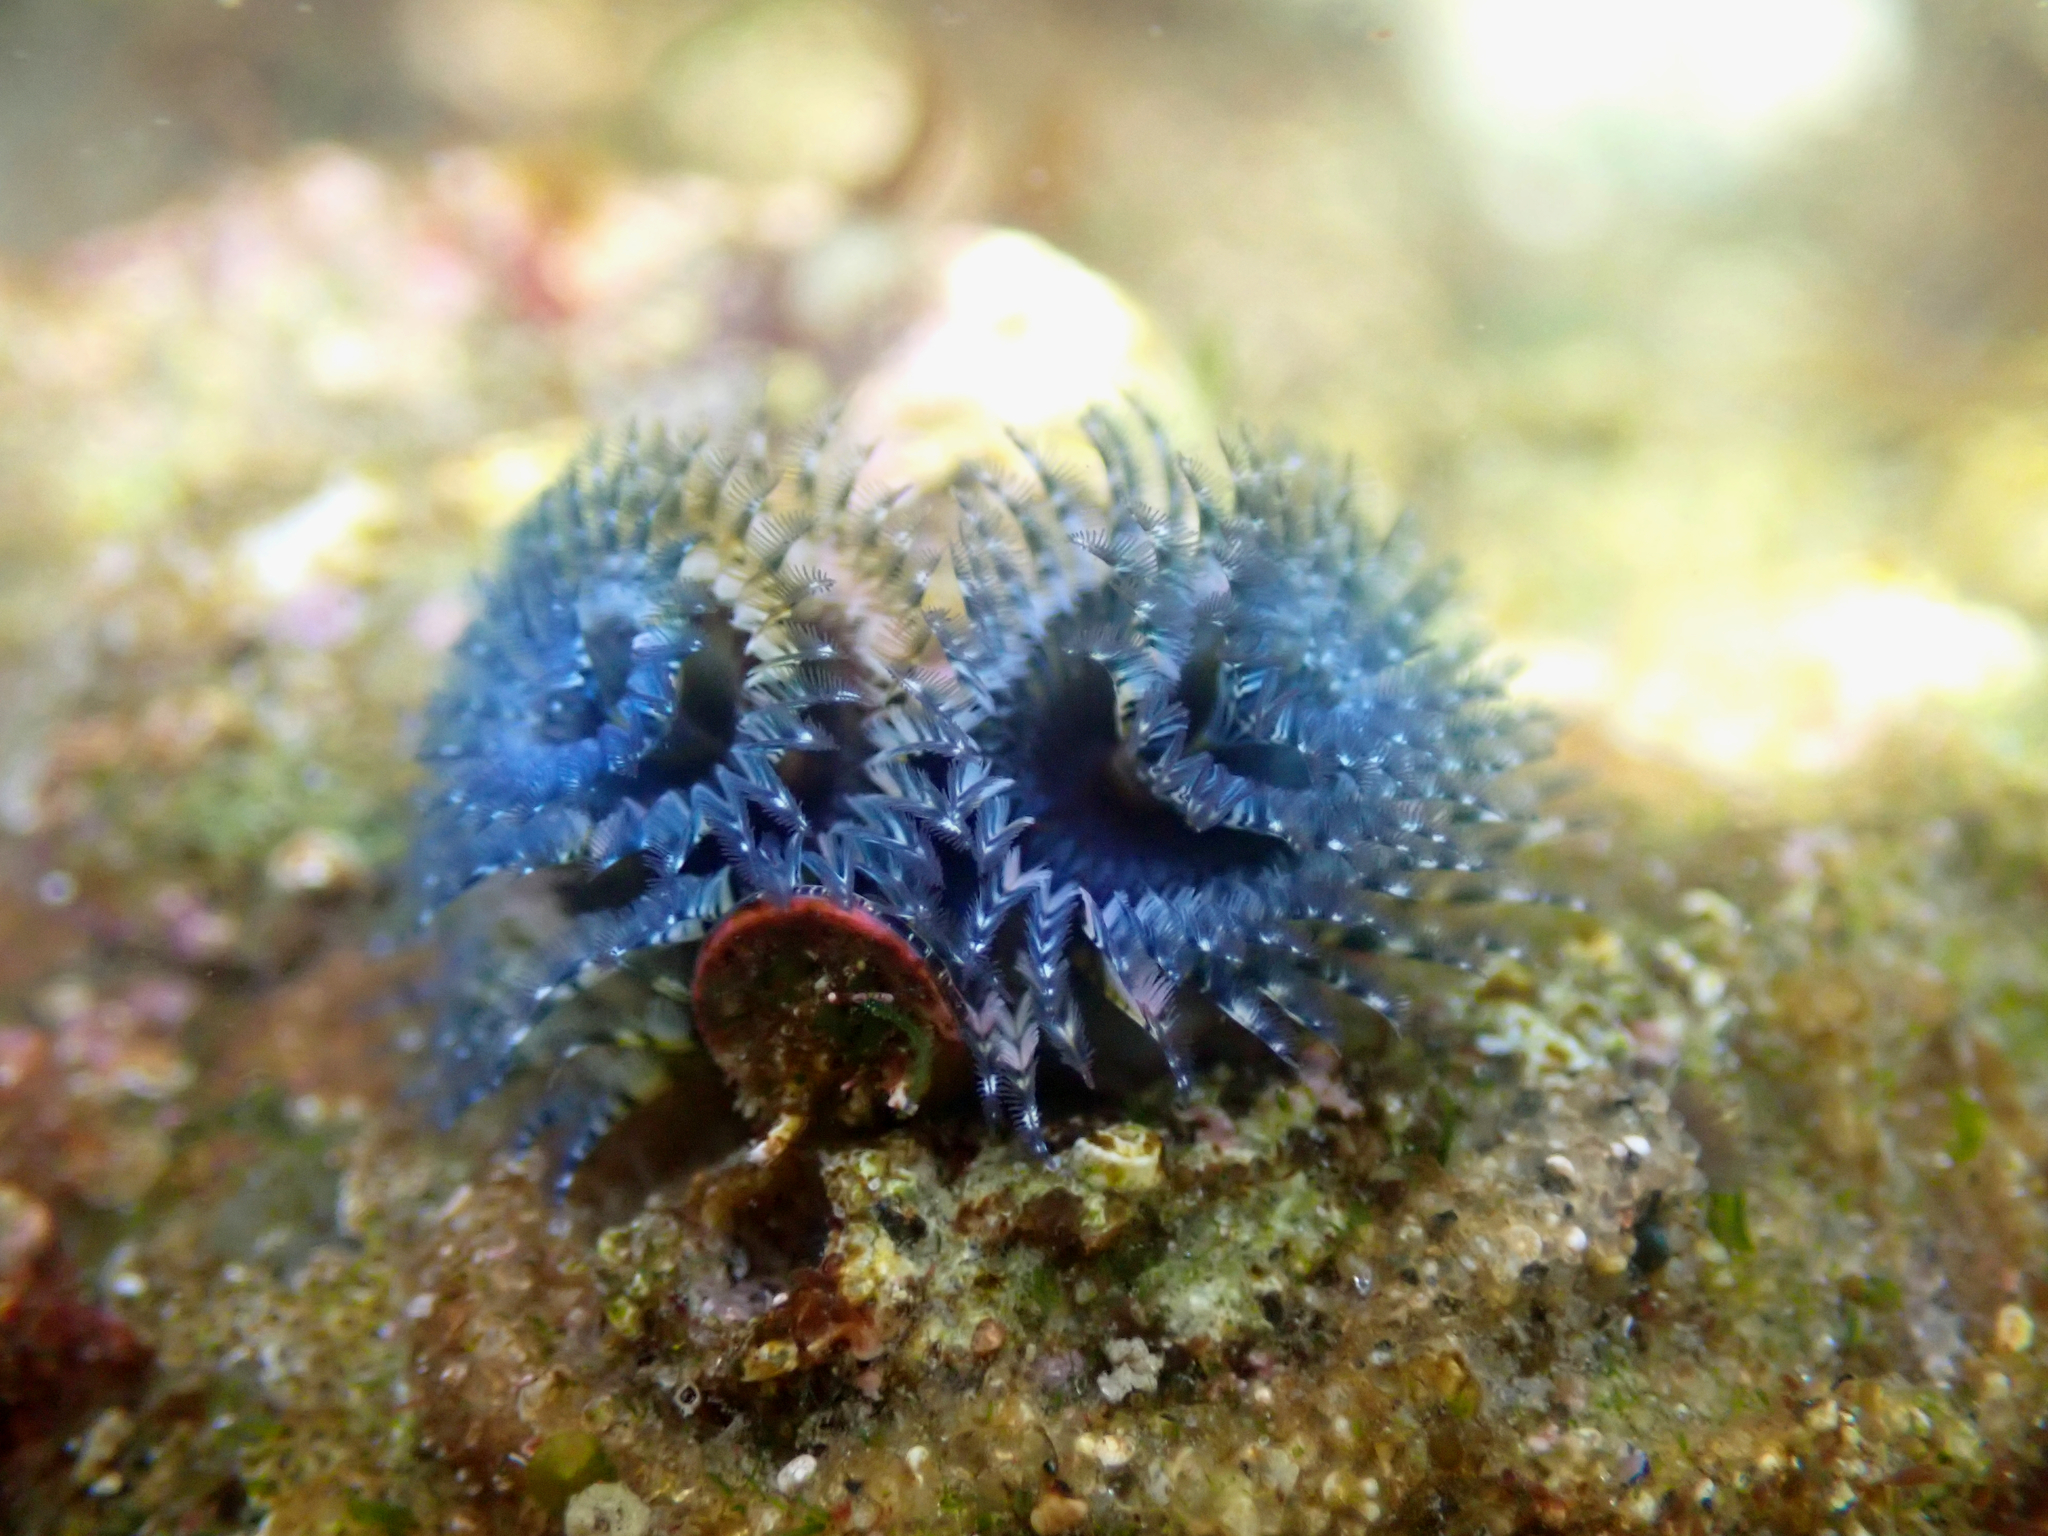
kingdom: Animalia
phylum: Annelida
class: Polychaeta
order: Sabellida
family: Serpulidae
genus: Spirobranchus
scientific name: Spirobranchus spinosus
